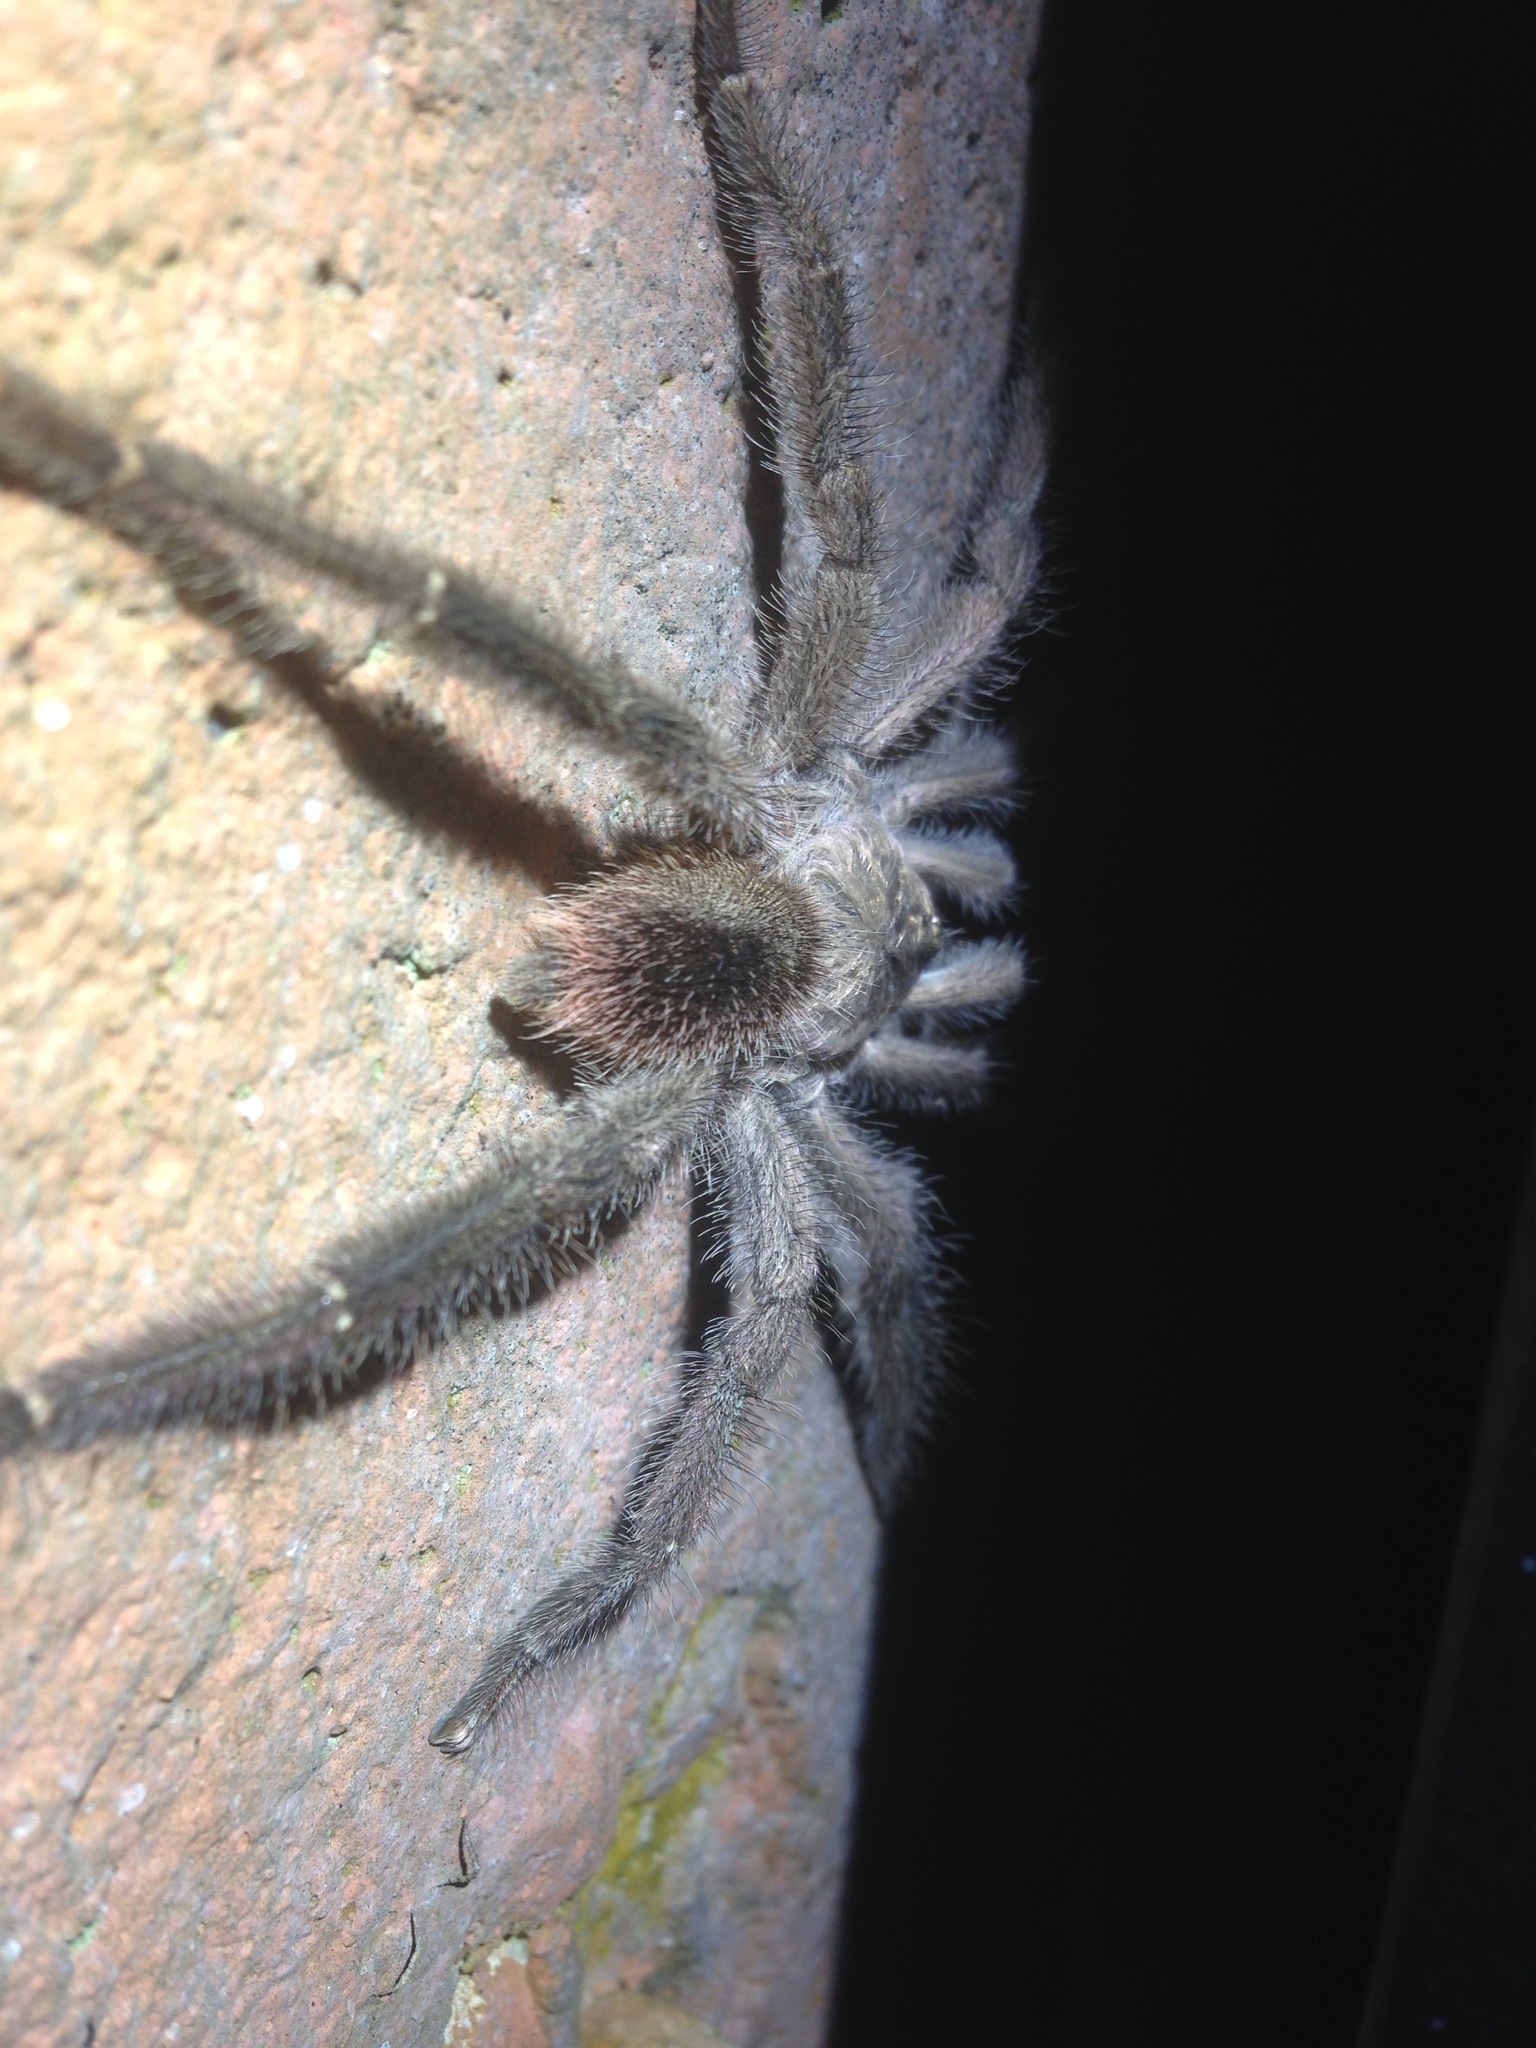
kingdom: Animalia
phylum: Arthropoda
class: Arachnida
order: Araneae
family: Theraphosidae
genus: Caribena
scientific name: Caribena laeta
